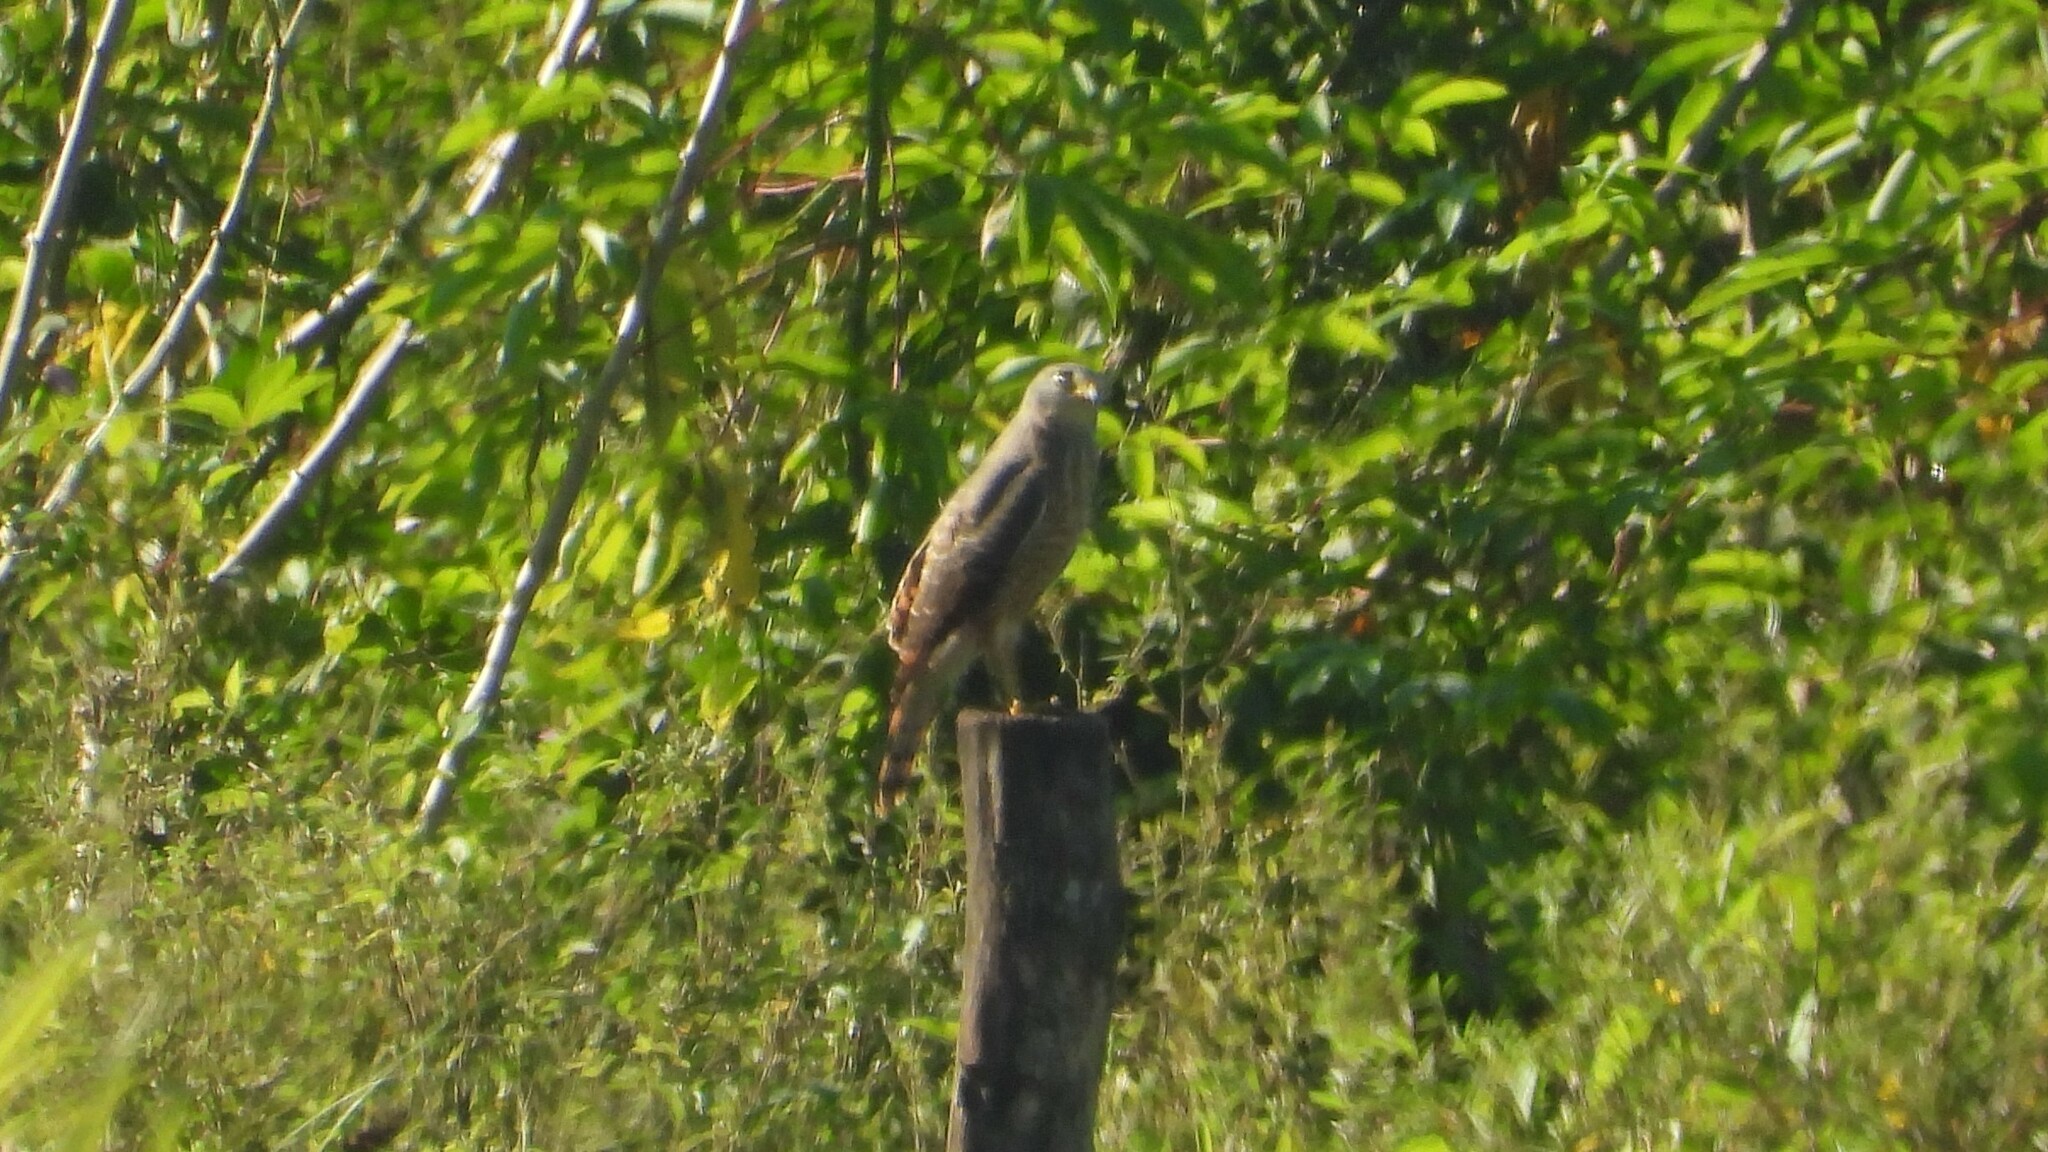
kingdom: Animalia
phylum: Chordata
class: Aves
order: Accipitriformes
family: Accipitridae
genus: Rupornis
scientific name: Rupornis magnirostris
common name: Roadside hawk
